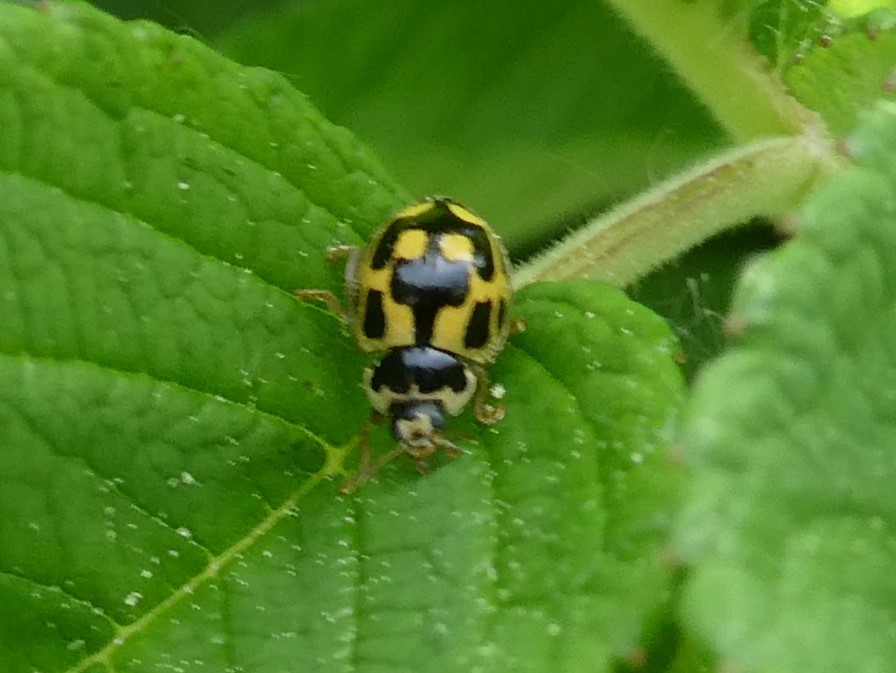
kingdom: Animalia
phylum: Arthropoda
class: Insecta
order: Coleoptera
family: Coccinellidae
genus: Propylaea
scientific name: Propylaea quatuordecimpunctata
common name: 14-spotted ladybird beetle
